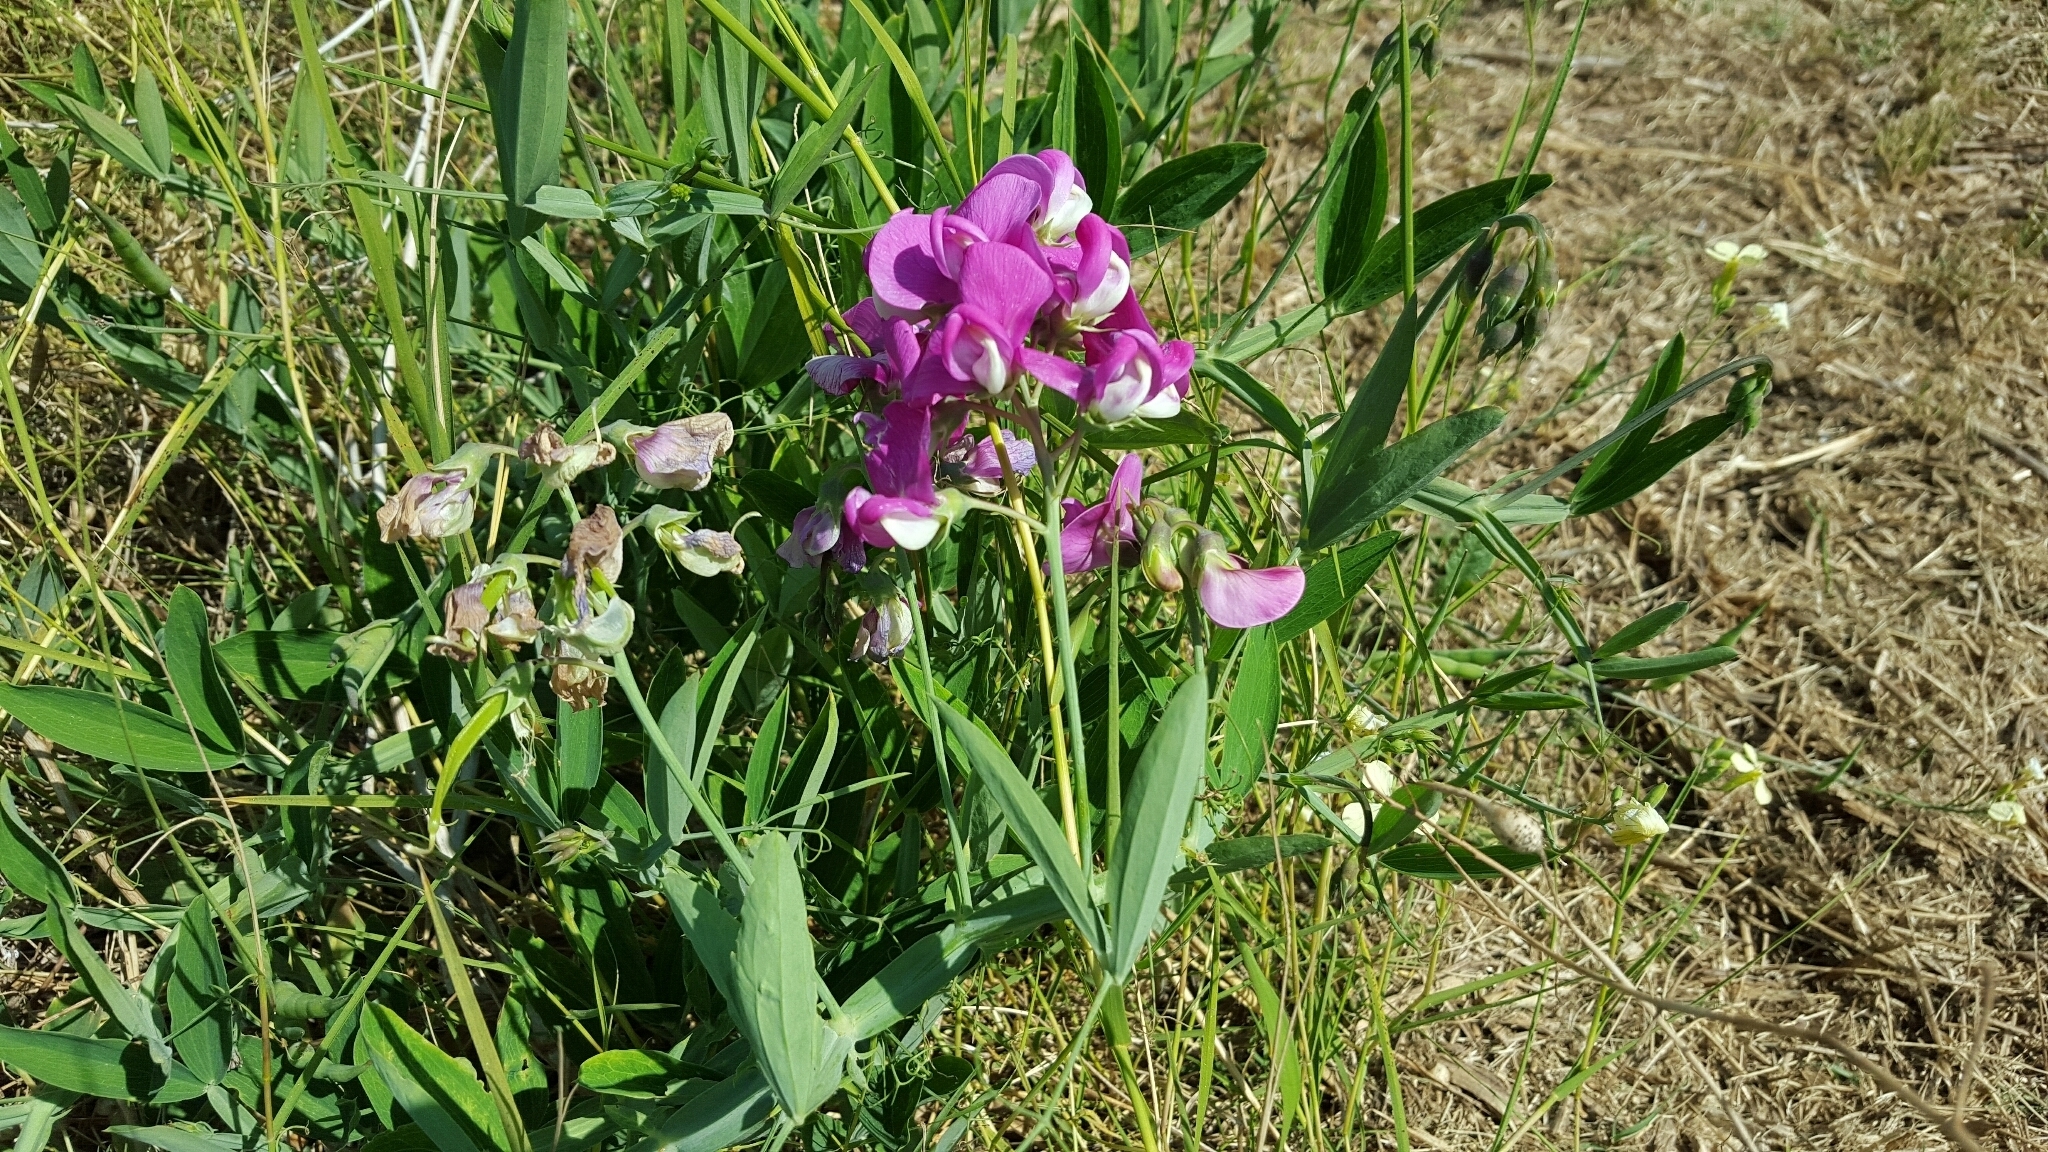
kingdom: Plantae
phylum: Tracheophyta
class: Magnoliopsida
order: Fabales
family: Fabaceae
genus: Lathyrus
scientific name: Lathyrus latifolius
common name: Perennial pea
